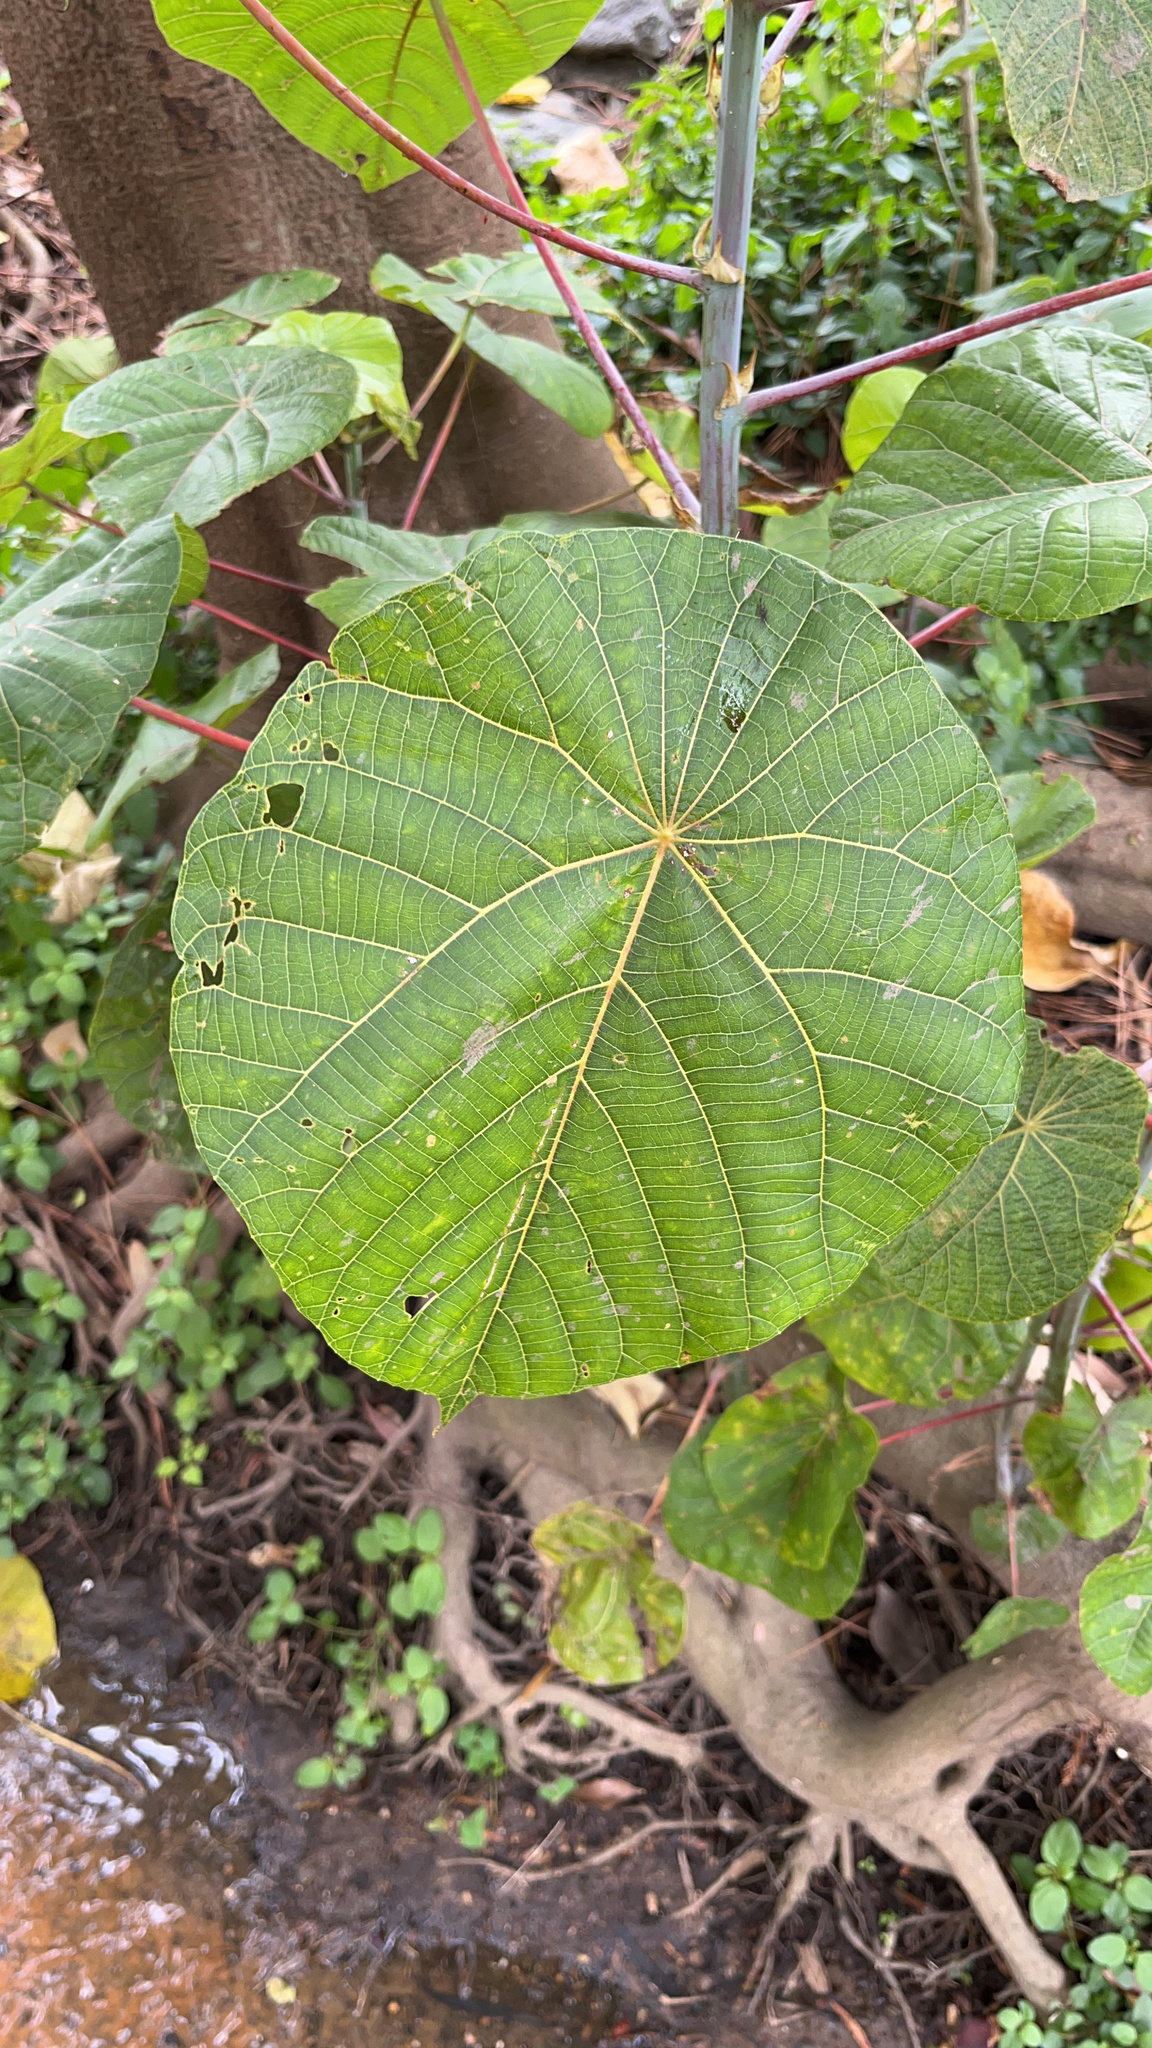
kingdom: Plantae
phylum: Tracheophyta
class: Magnoliopsida
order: Malpighiales
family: Euphorbiaceae
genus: Macaranga
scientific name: Macaranga tanarius
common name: Parasol leaf tree
